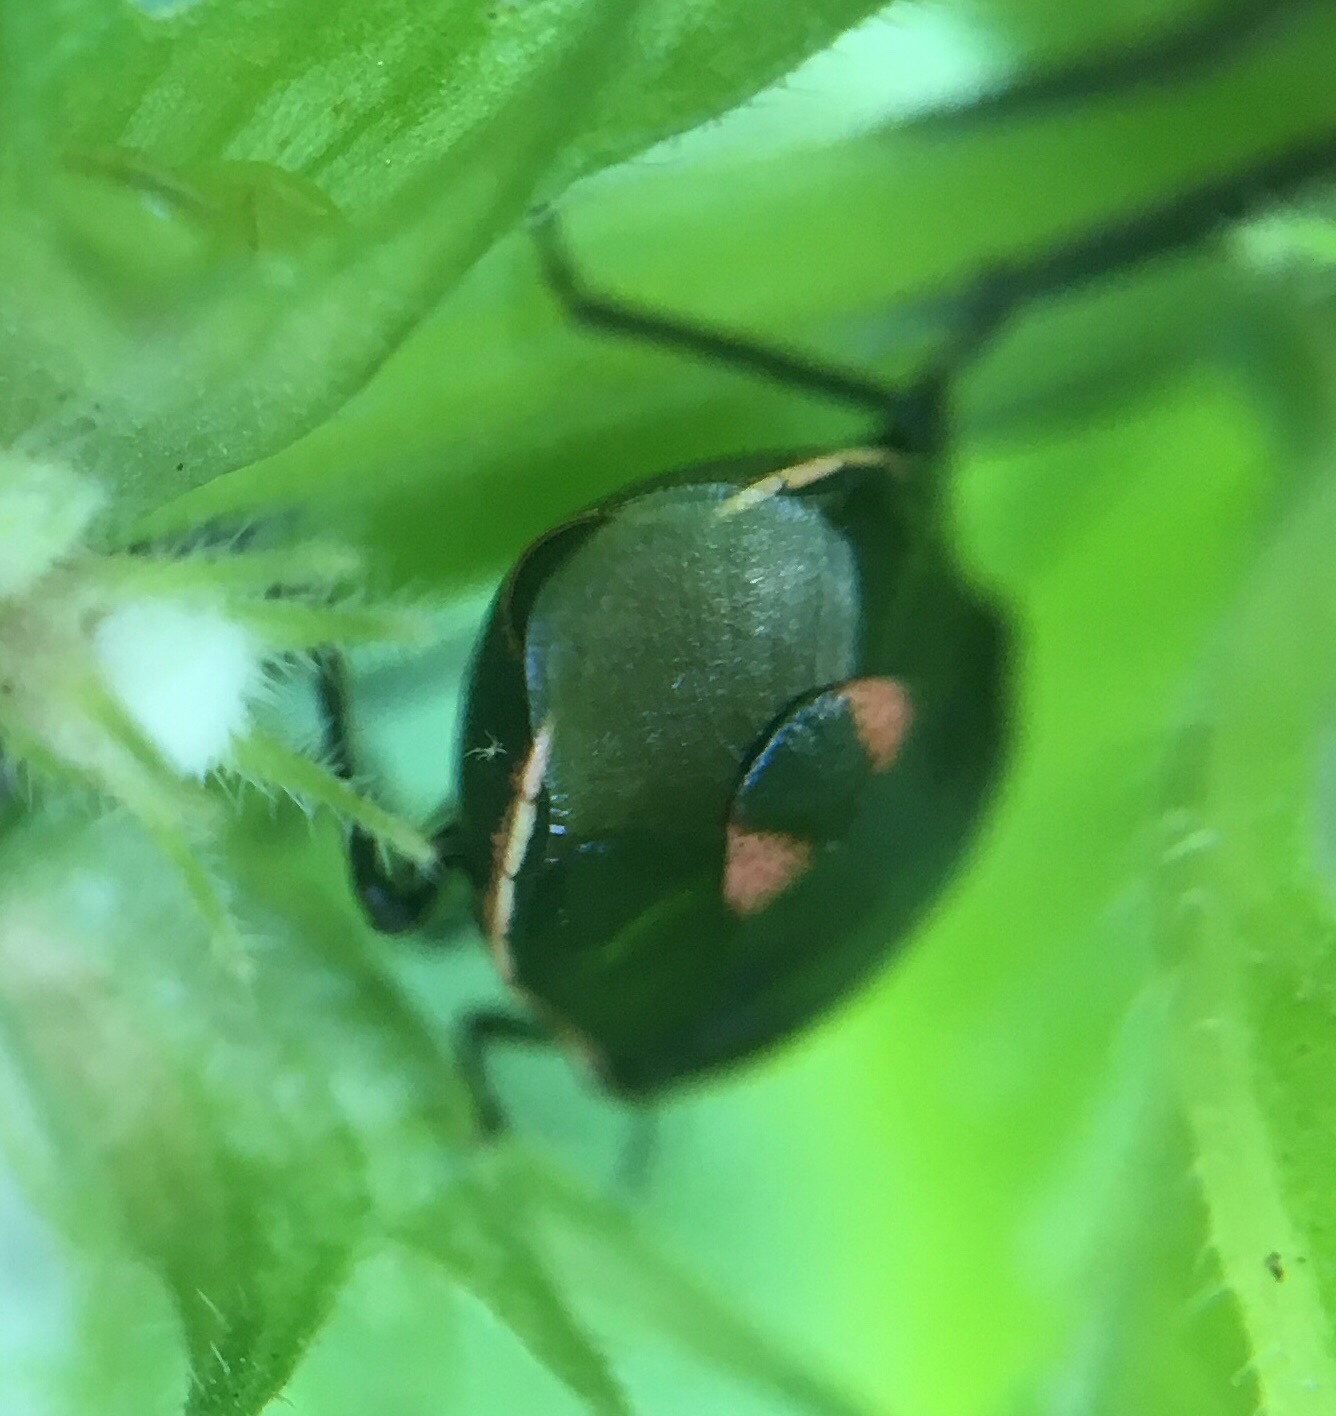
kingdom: Animalia
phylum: Arthropoda
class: Insecta
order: Hemiptera
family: Pentatomidae
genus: Cosmopepla
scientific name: Cosmopepla lintneriana
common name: Twice-stabbed stink bug
